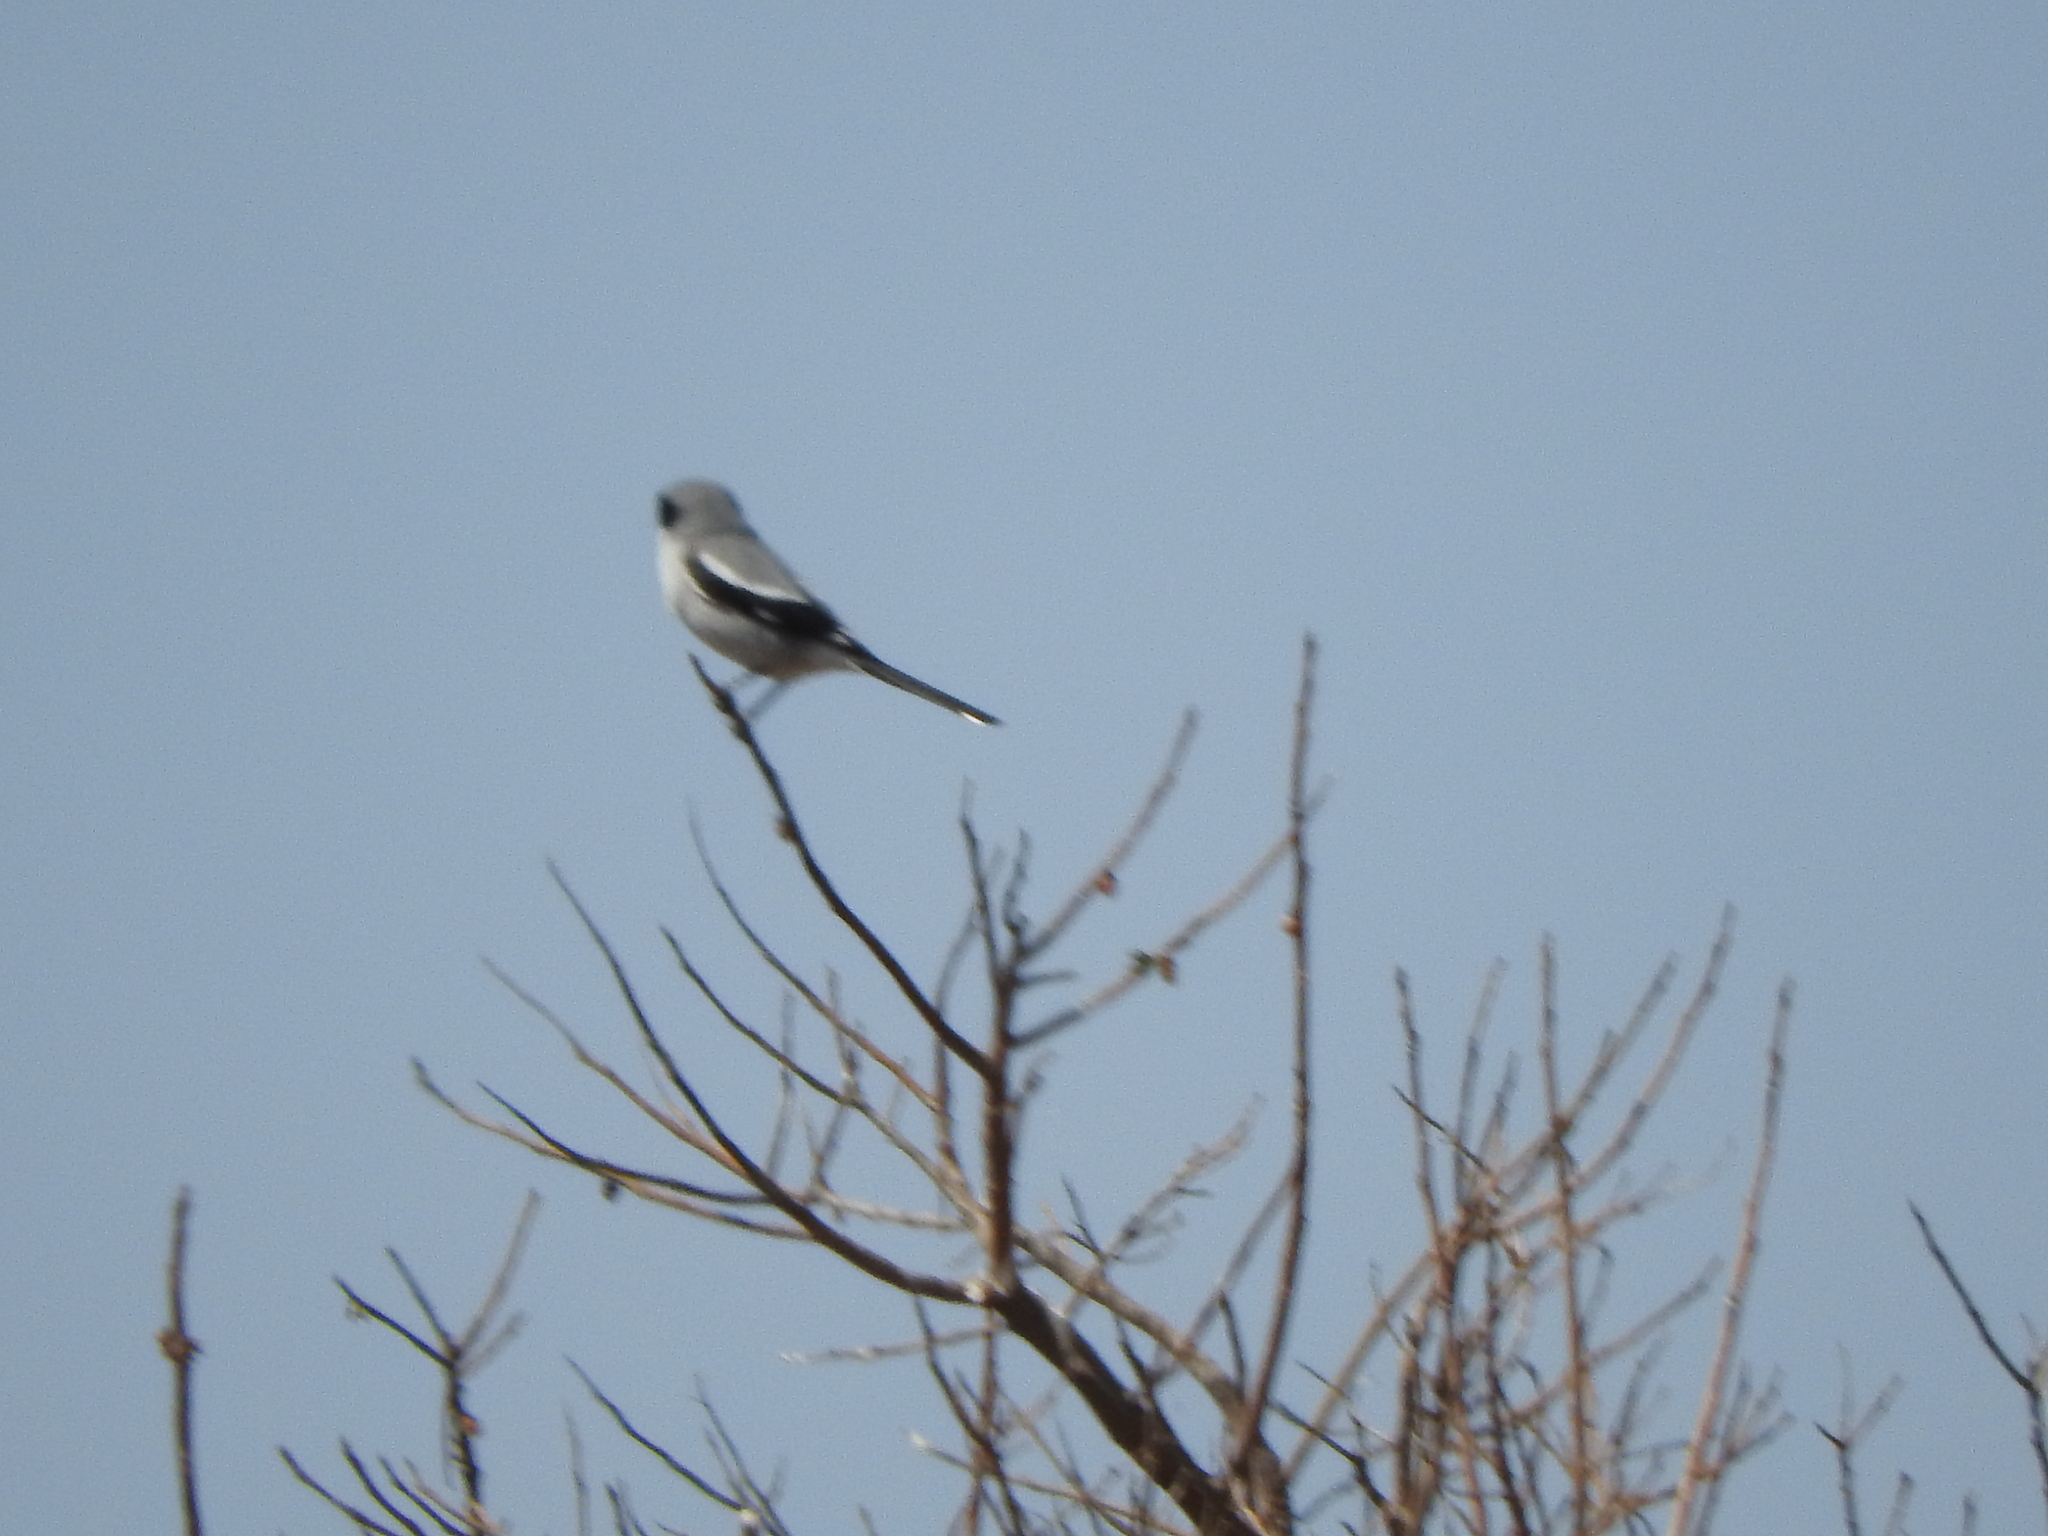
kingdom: Animalia
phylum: Chordata
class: Aves
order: Passeriformes
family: Laniidae
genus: Lanius
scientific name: Lanius ludovicianus
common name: Loggerhead shrike
